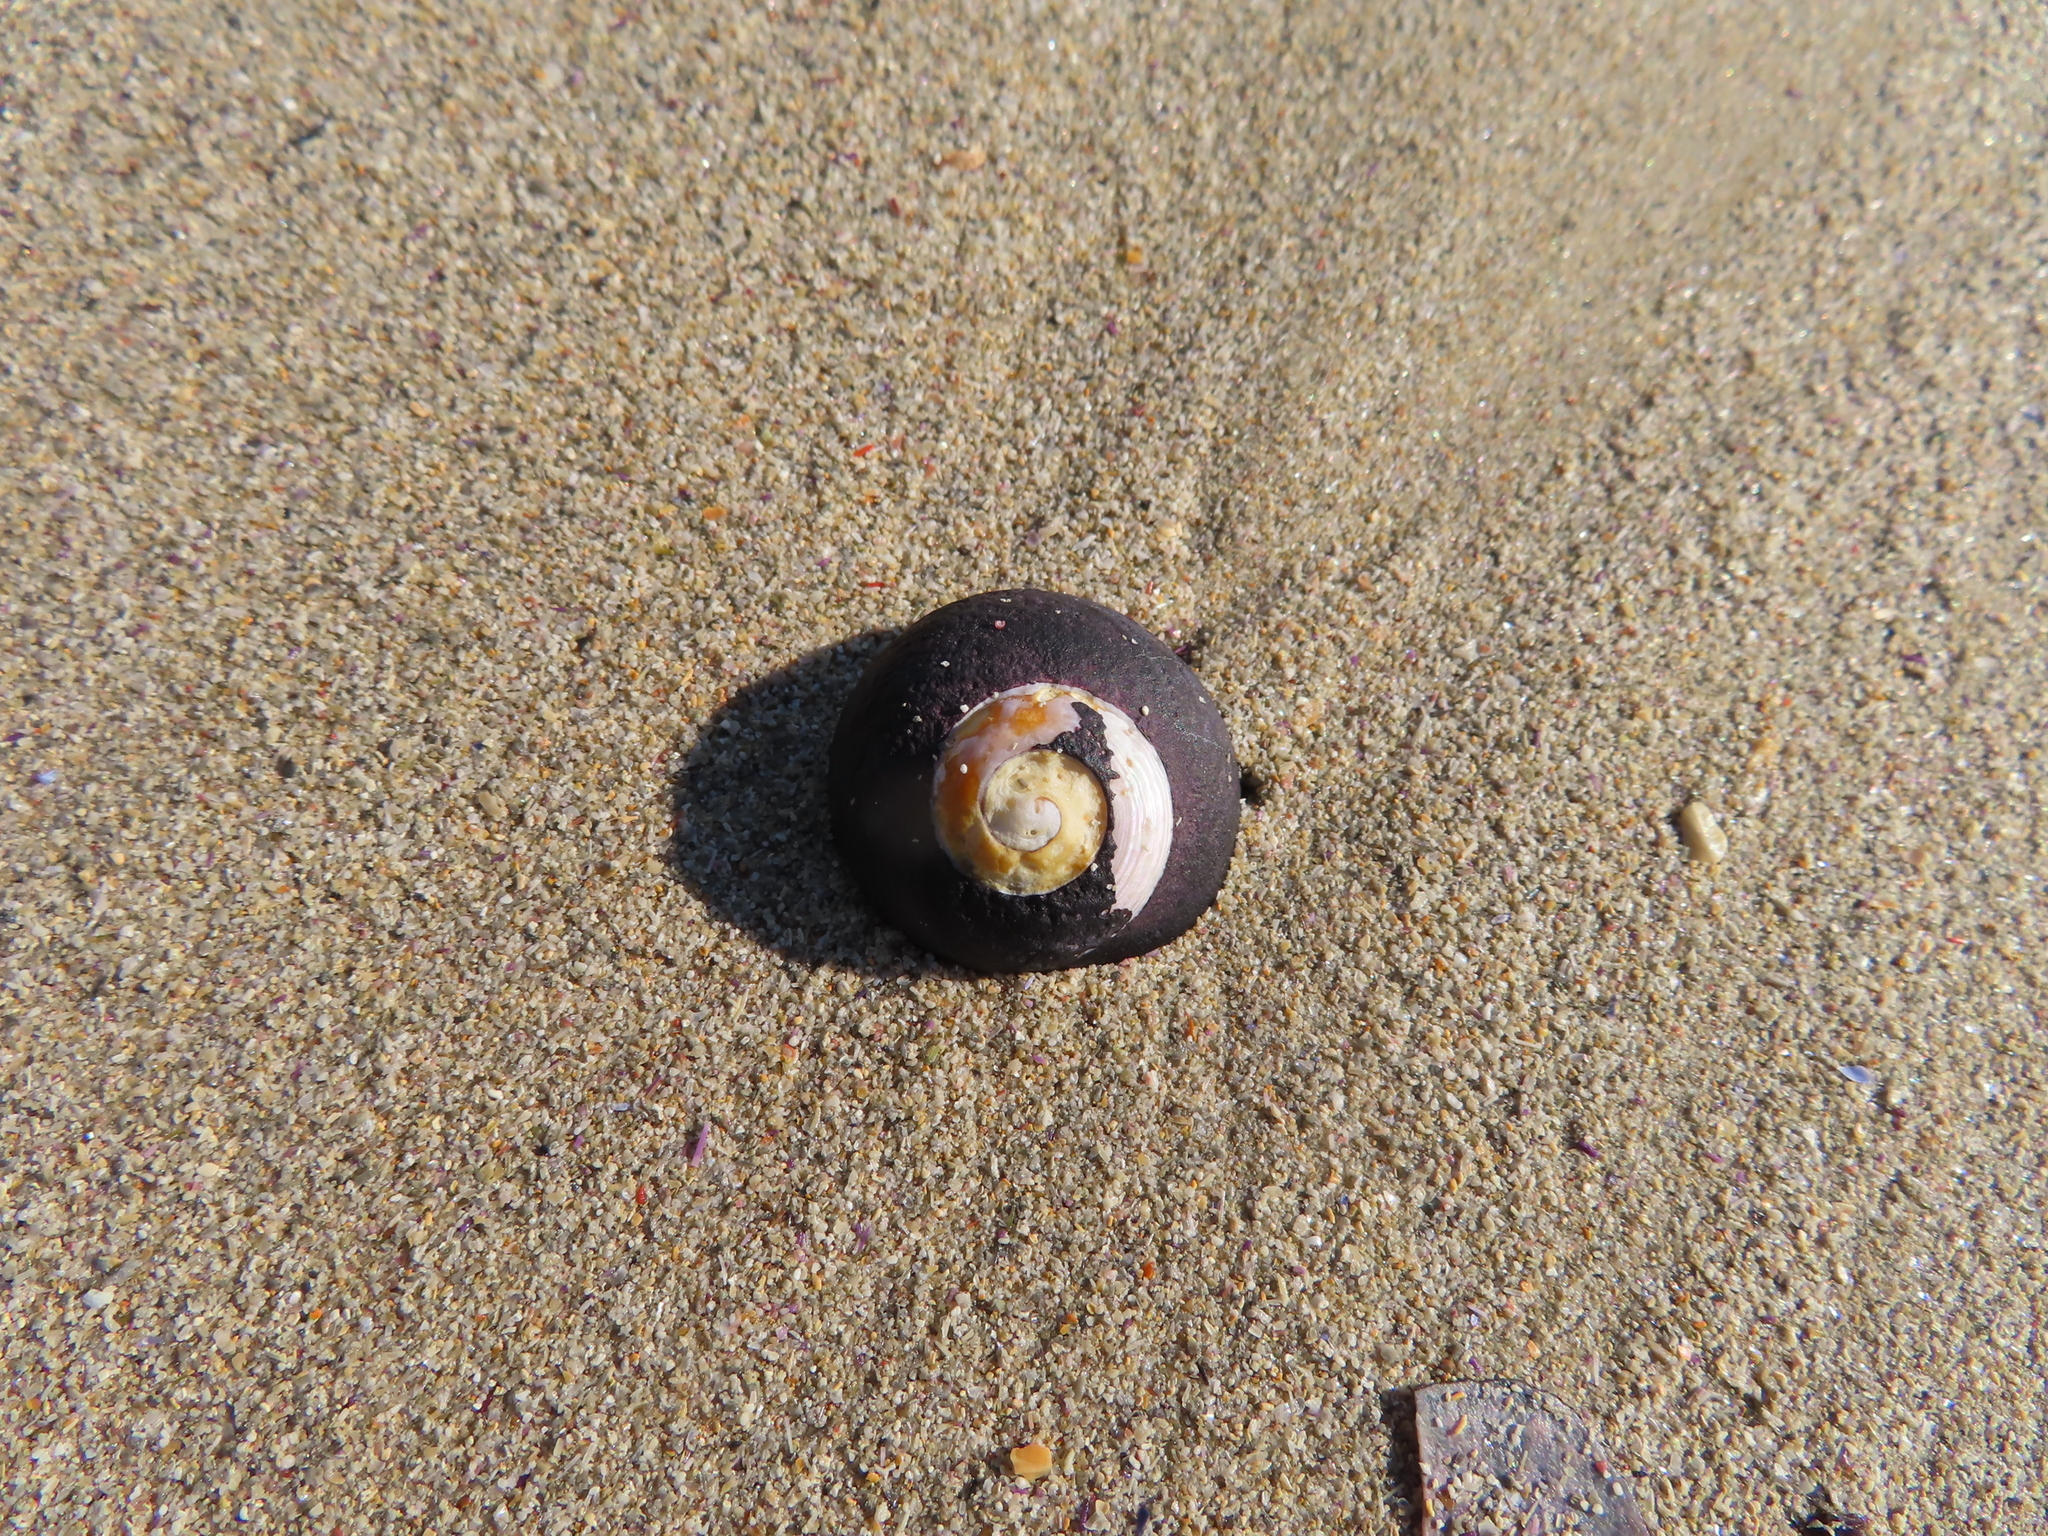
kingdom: Animalia
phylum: Mollusca
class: Gastropoda
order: Trochida
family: Trochidae
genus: Oxystele
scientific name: Oxystele sinensis
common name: Pink-lipped topshell
